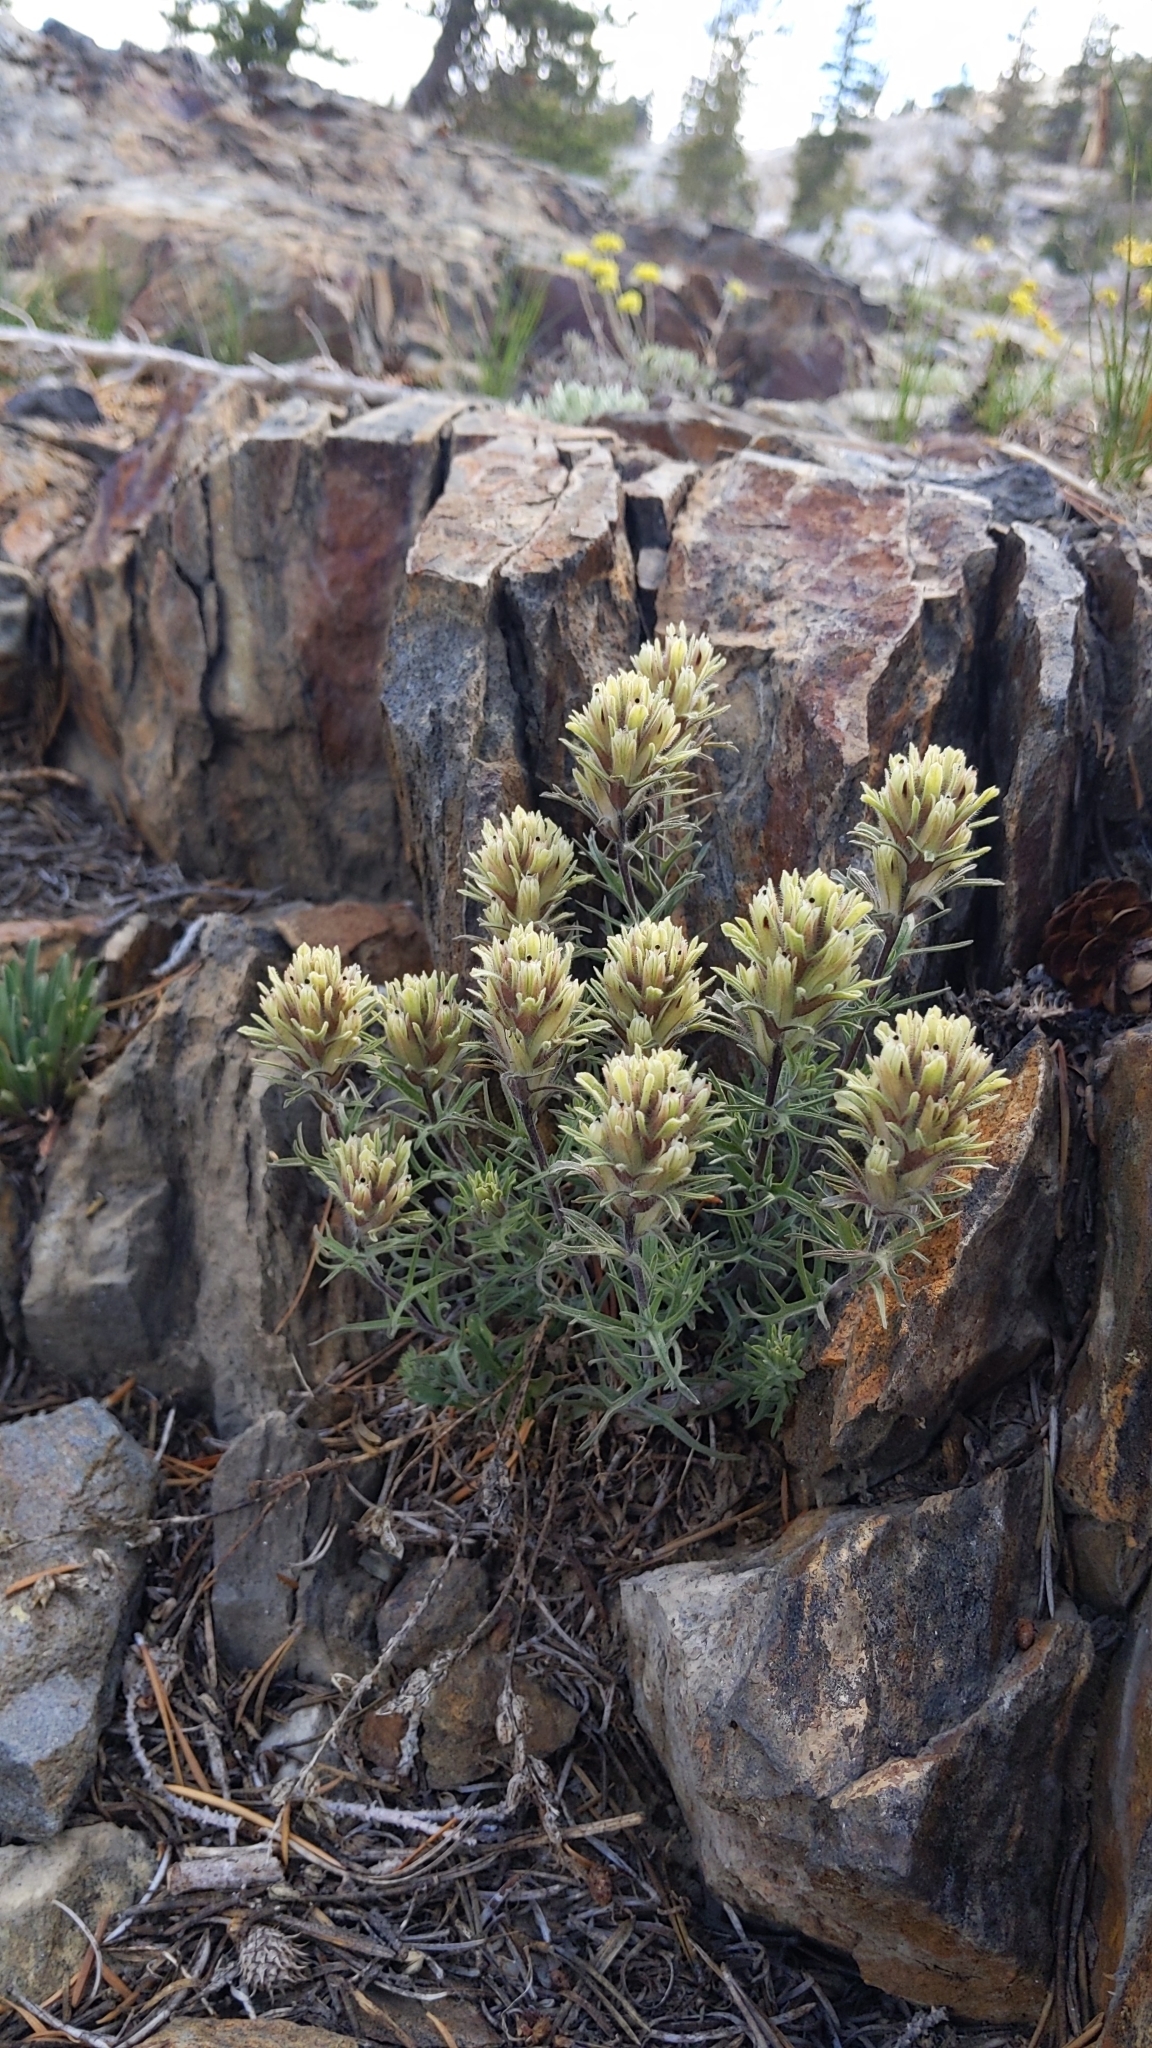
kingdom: Plantae
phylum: Tracheophyta
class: Magnoliopsida
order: Lamiales
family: Orobanchaceae
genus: Castilleja
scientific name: Castilleja nana
